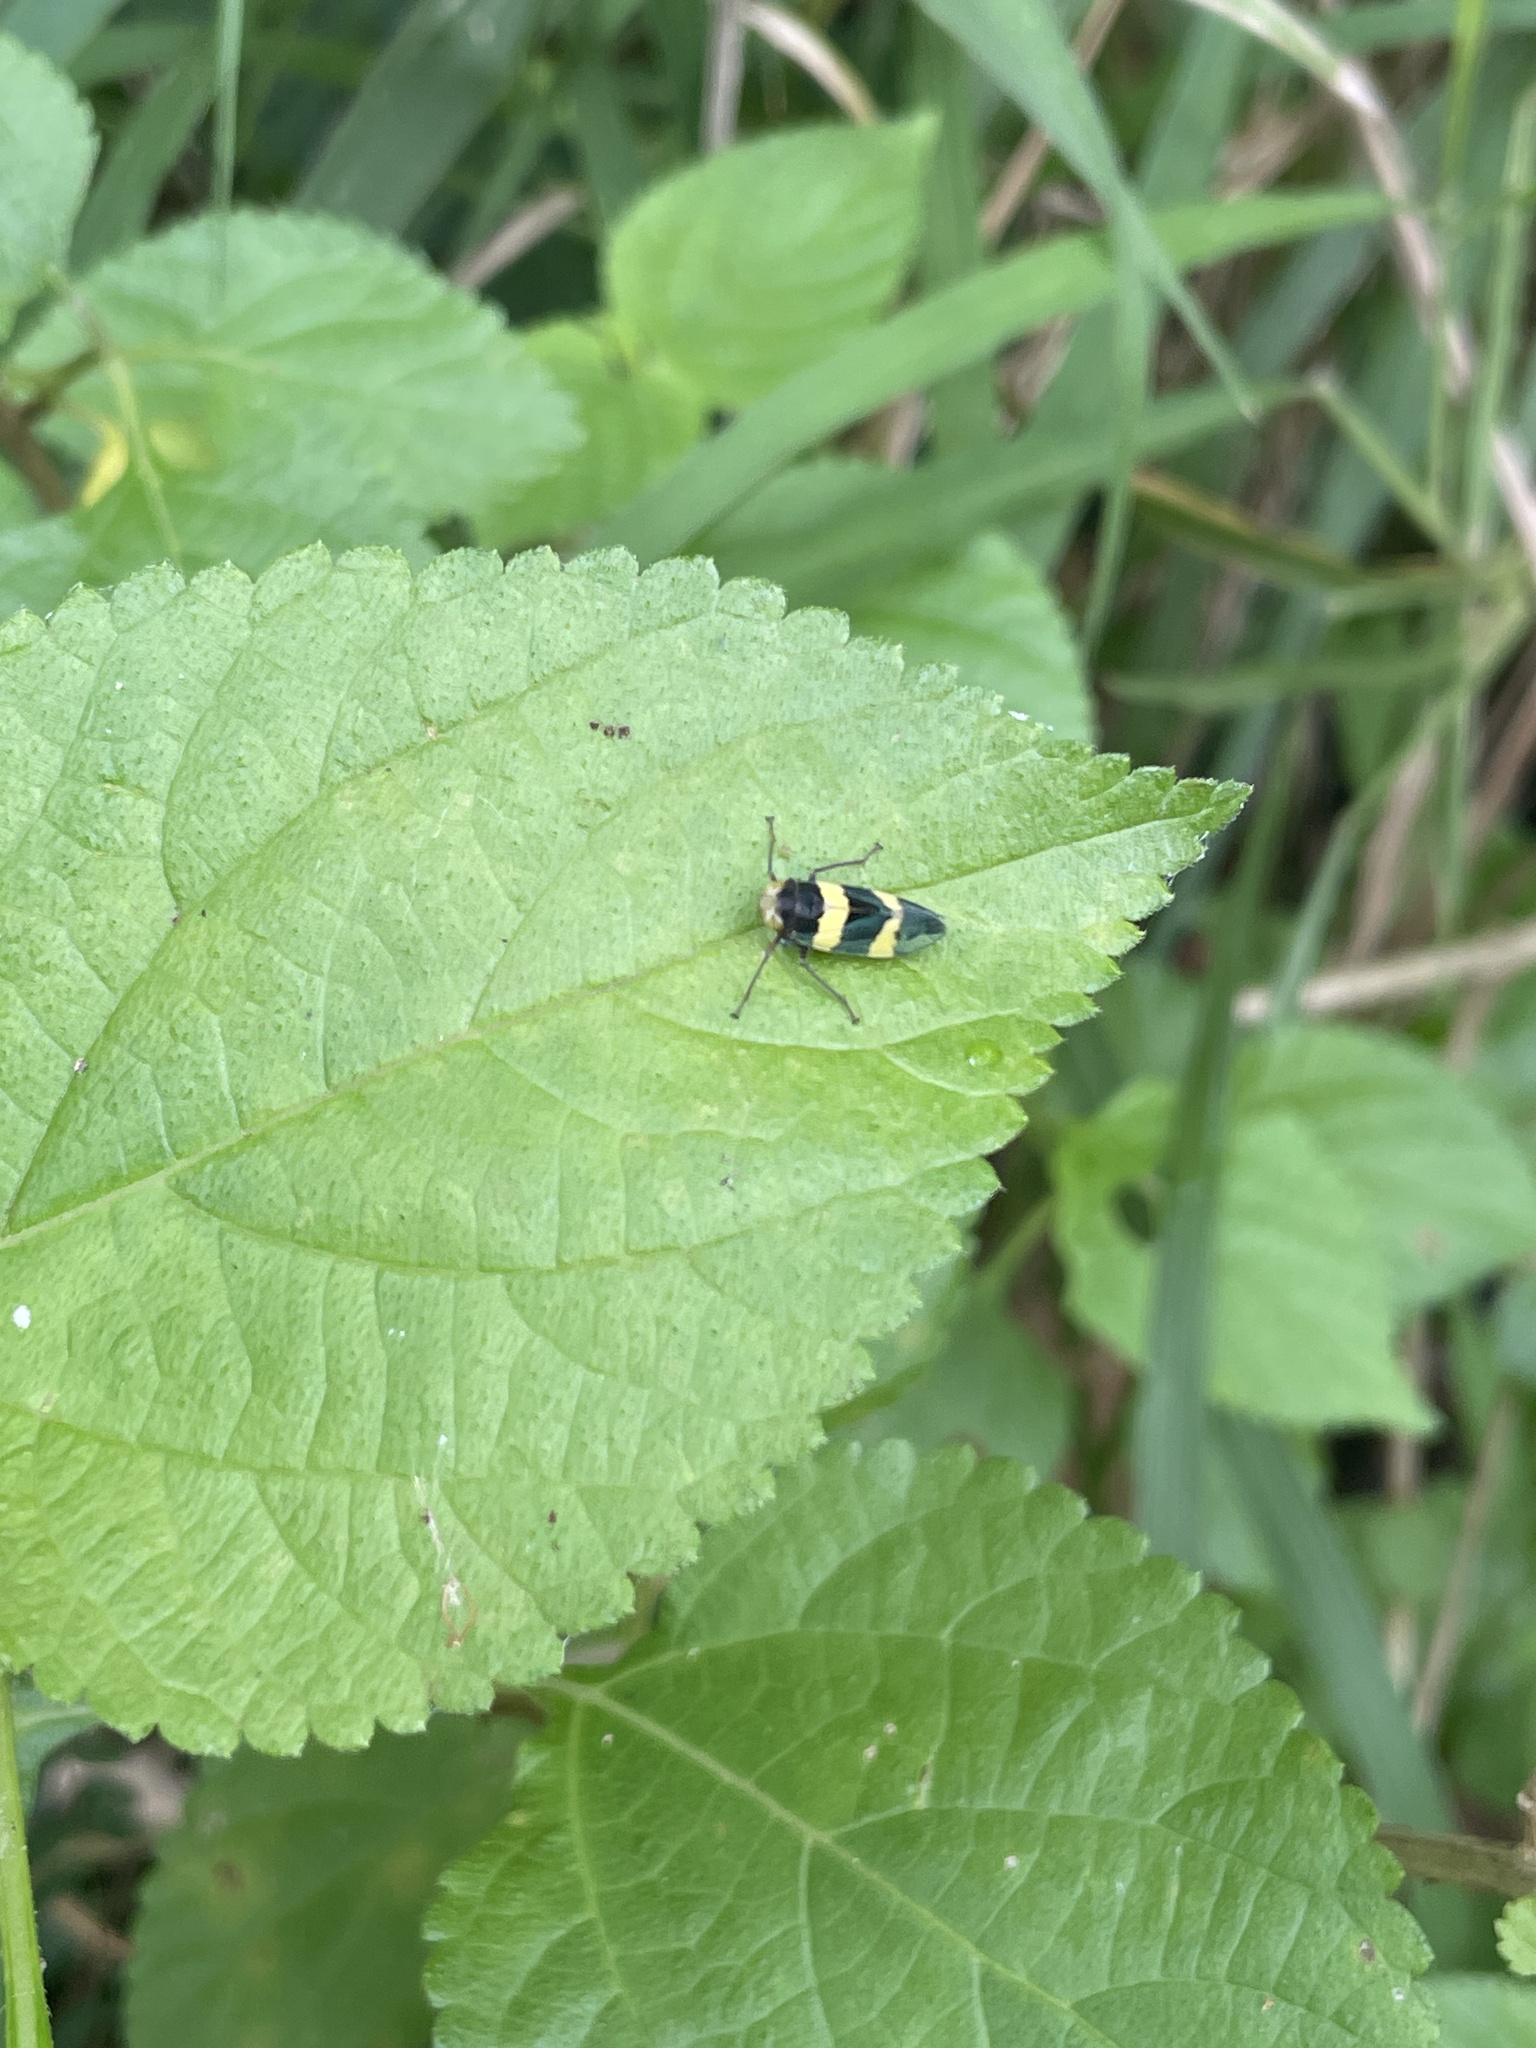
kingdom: Animalia
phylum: Arthropoda
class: Insecta
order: Hemiptera
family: Cicadellidae
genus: Olidiana
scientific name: Olidiana brevis
